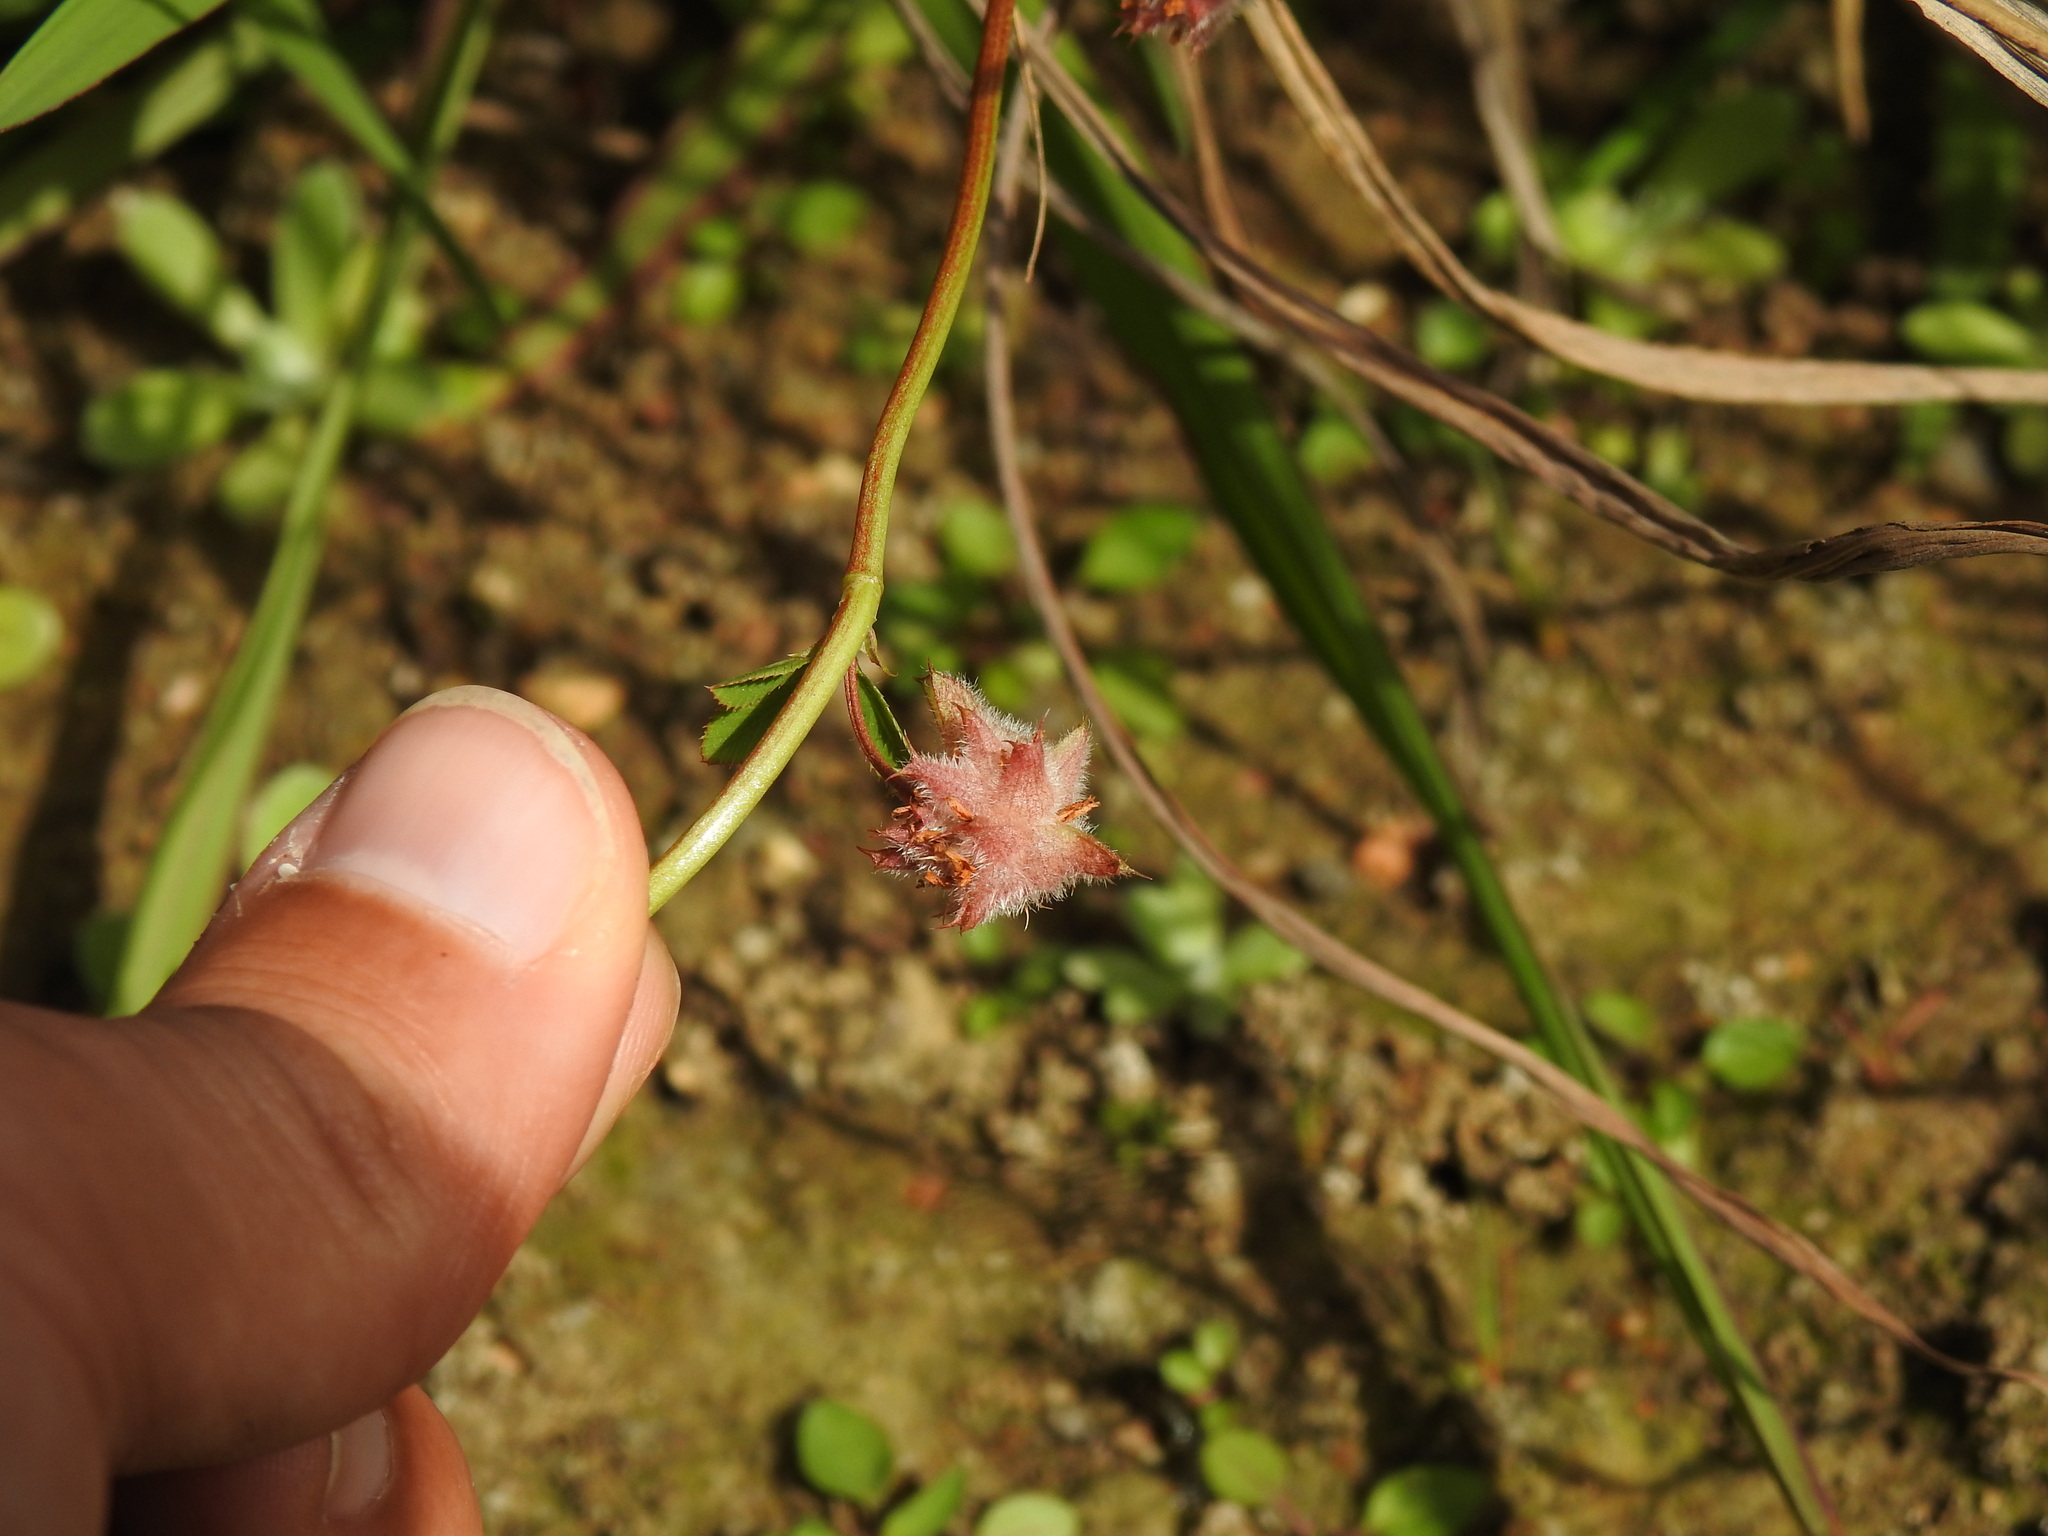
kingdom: Plantae
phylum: Tracheophyta
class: Magnoliopsida
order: Fabales
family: Fabaceae
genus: Trifolium
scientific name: Trifolium resupinatum
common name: Reversed clover
